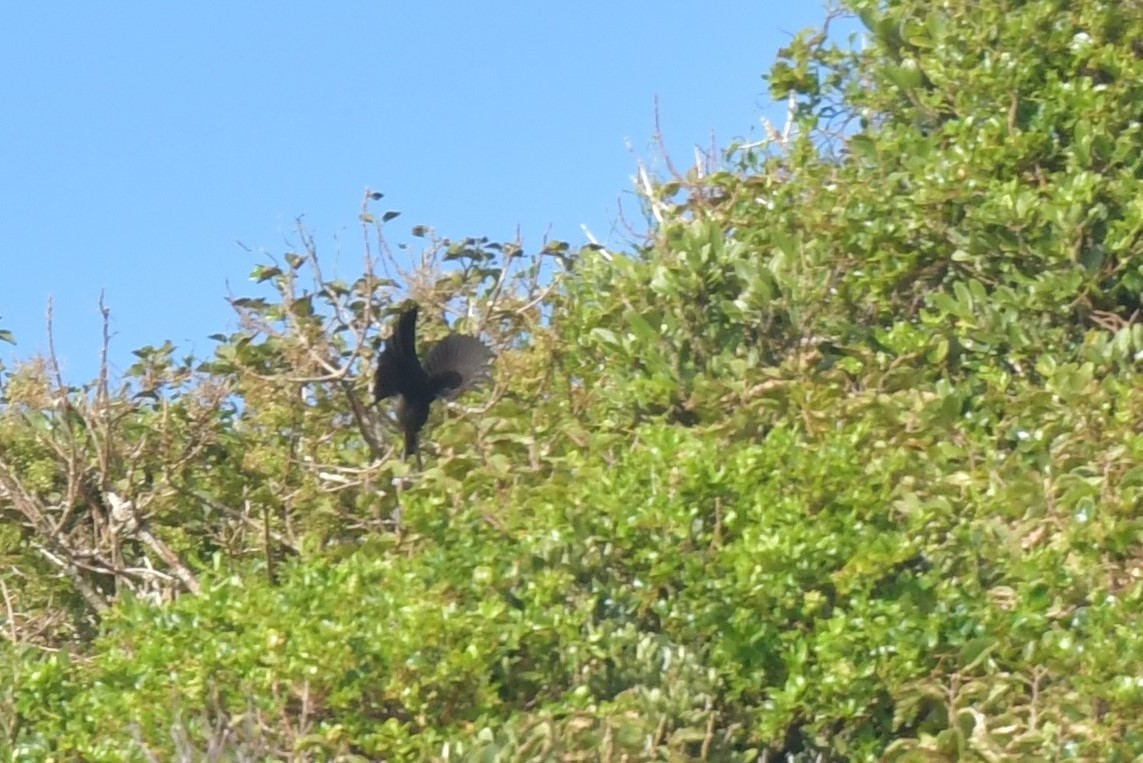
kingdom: Animalia
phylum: Chordata
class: Aves
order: Passeriformes
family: Petroicidae
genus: Petroica
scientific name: Petroica traversi
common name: Black robin
